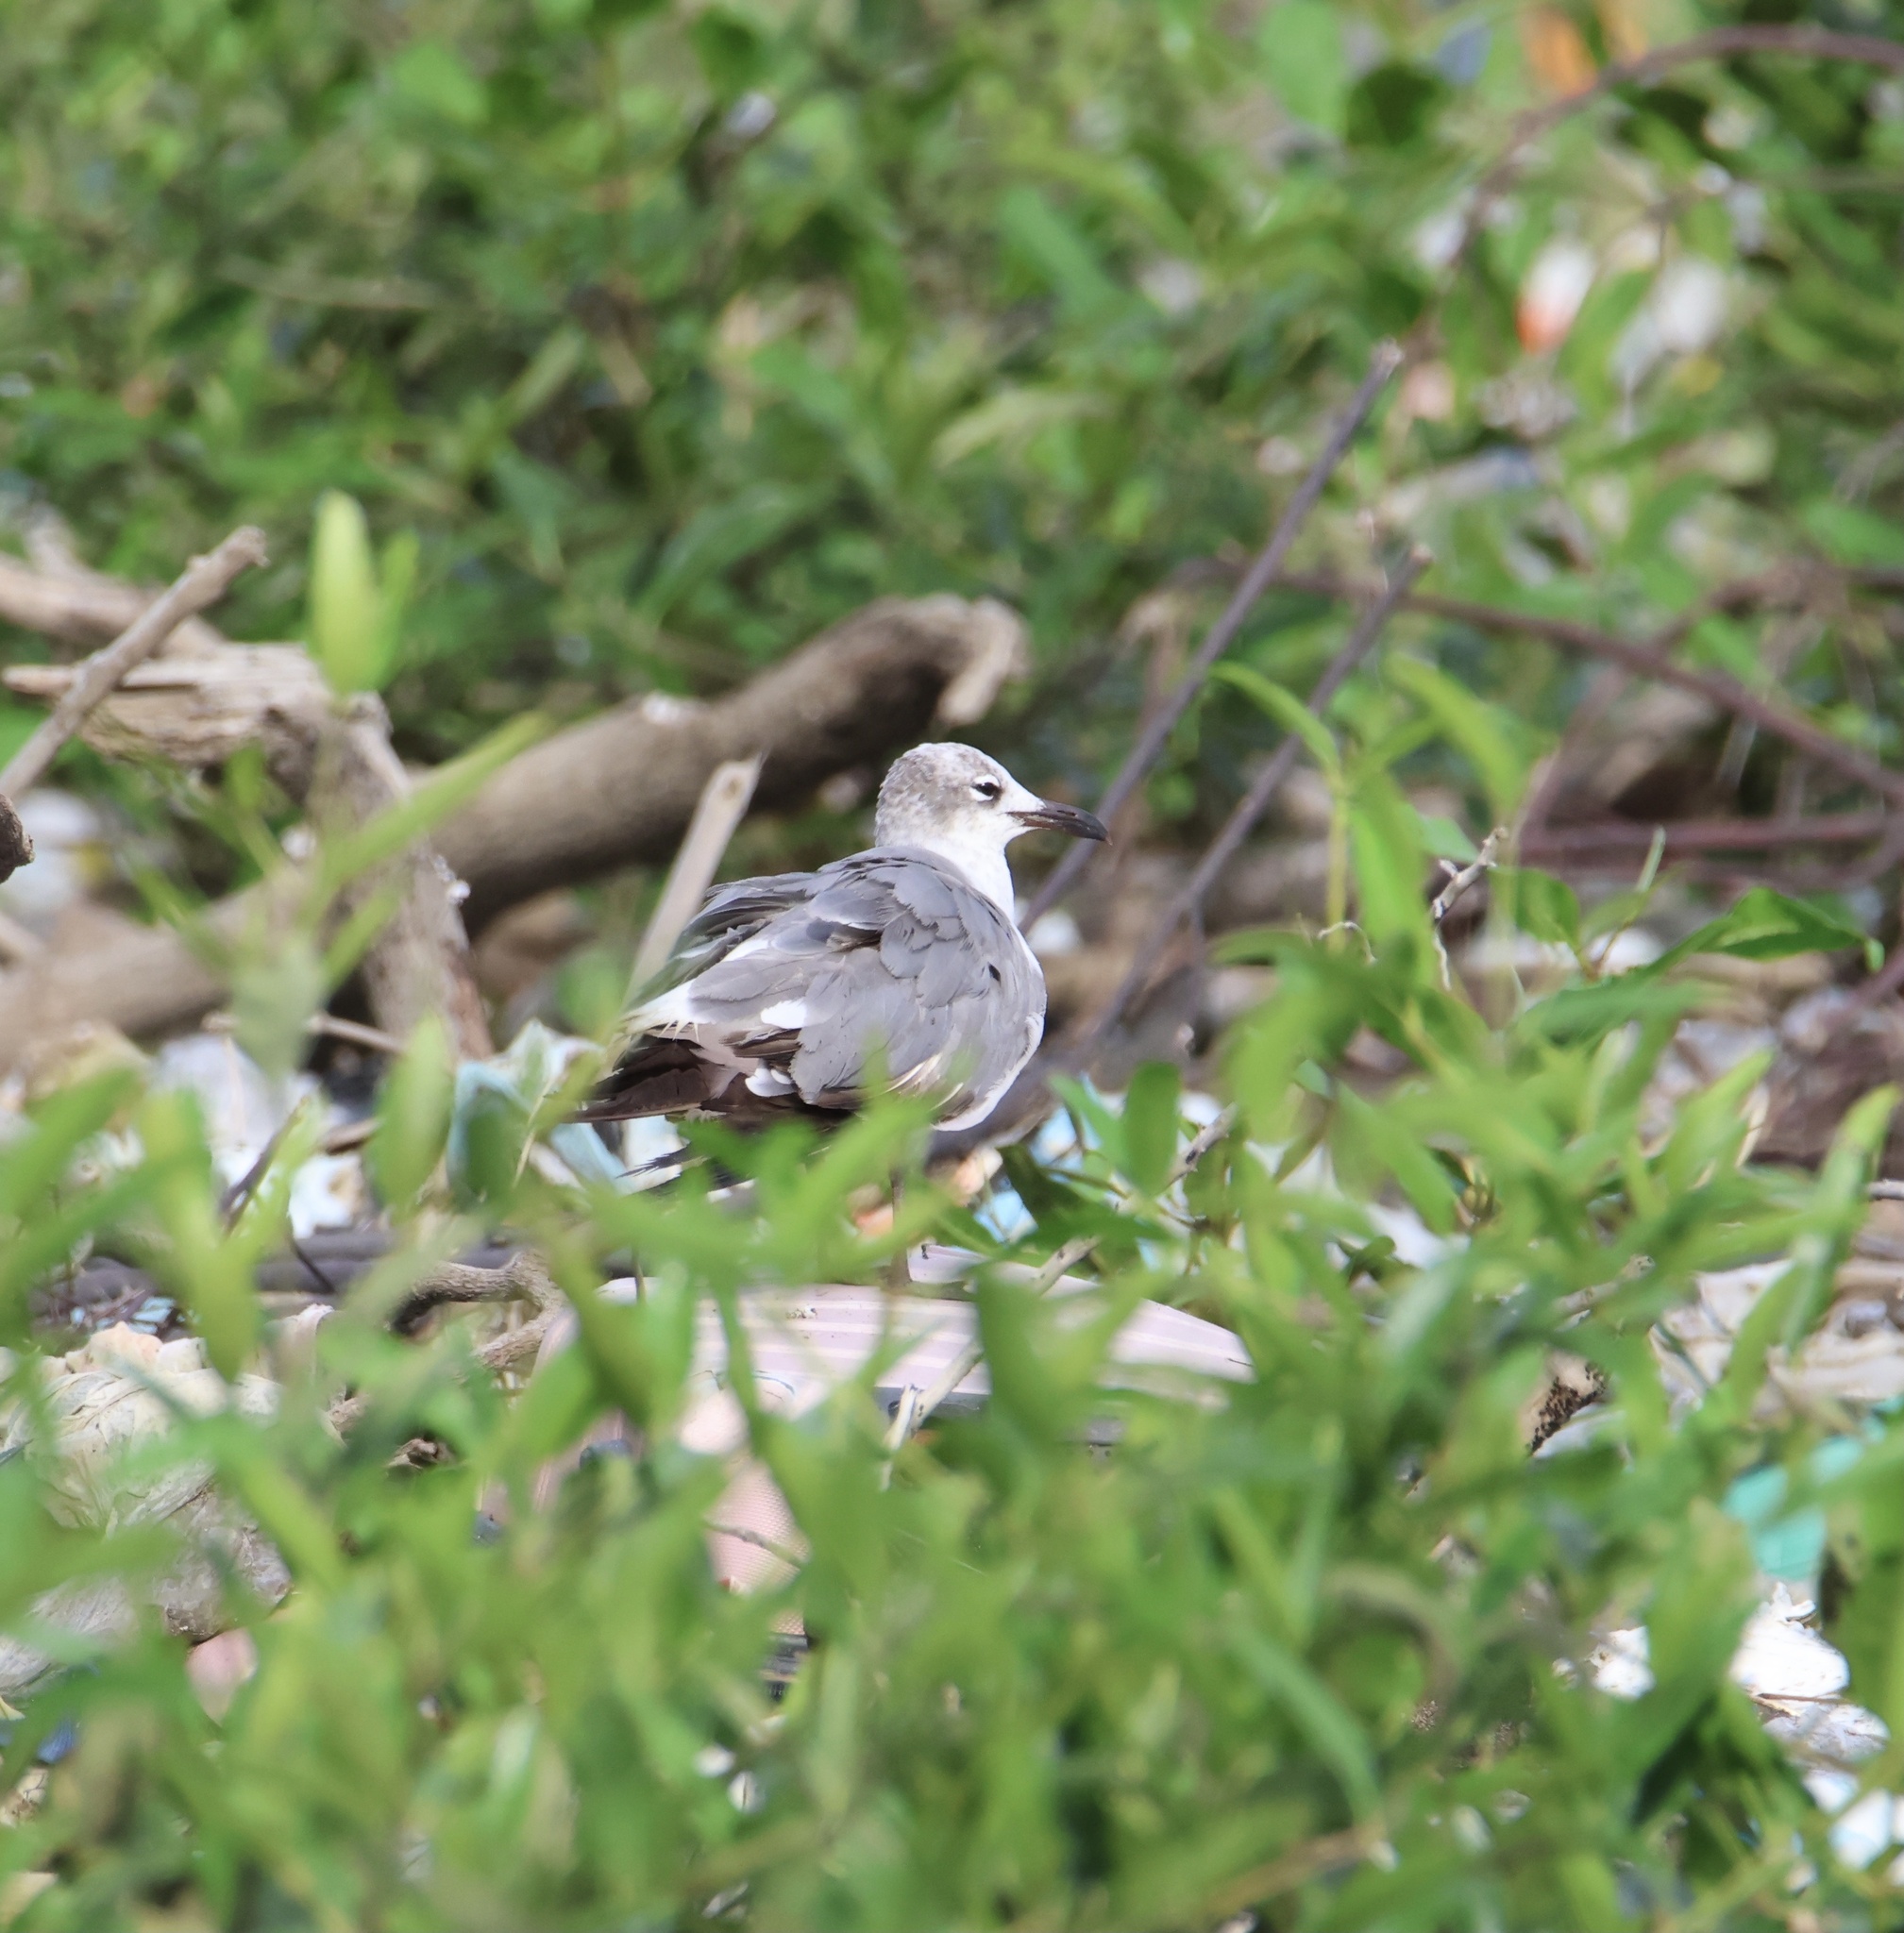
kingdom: Animalia
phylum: Chordata
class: Aves
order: Charadriiformes
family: Laridae
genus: Leucophaeus
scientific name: Leucophaeus atricilla
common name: Laughing gull
